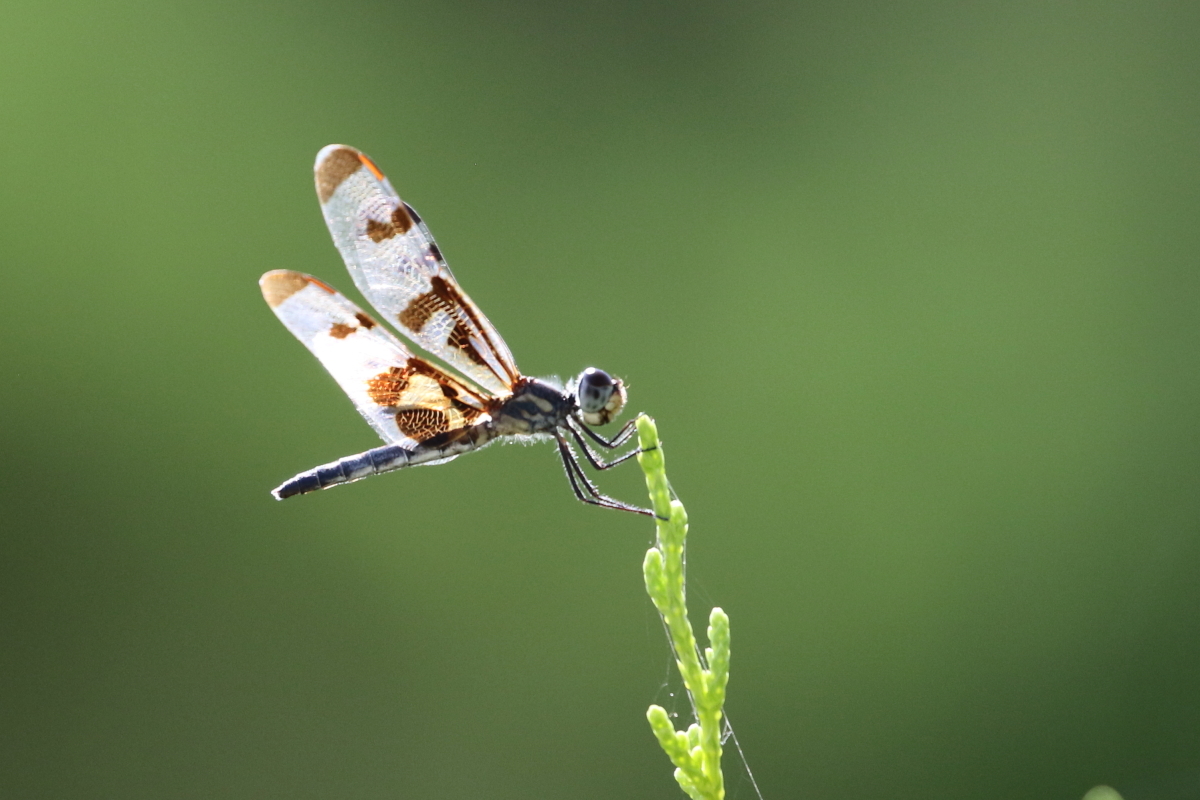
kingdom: Animalia
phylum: Arthropoda
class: Insecta
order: Odonata
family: Libellulidae
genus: Celithemis
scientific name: Celithemis fasciata
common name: Banded pennant
